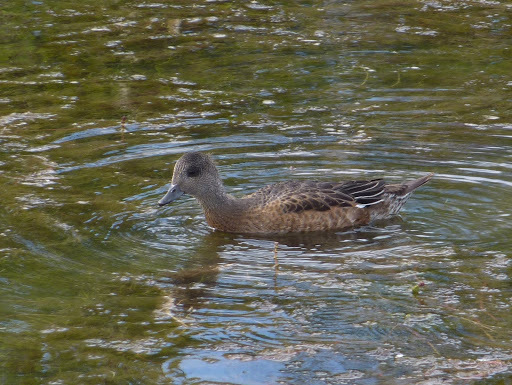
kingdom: Animalia
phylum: Chordata
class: Aves
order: Anseriformes
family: Anatidae
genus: Mareca
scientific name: Mareca americana
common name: American wigeon
